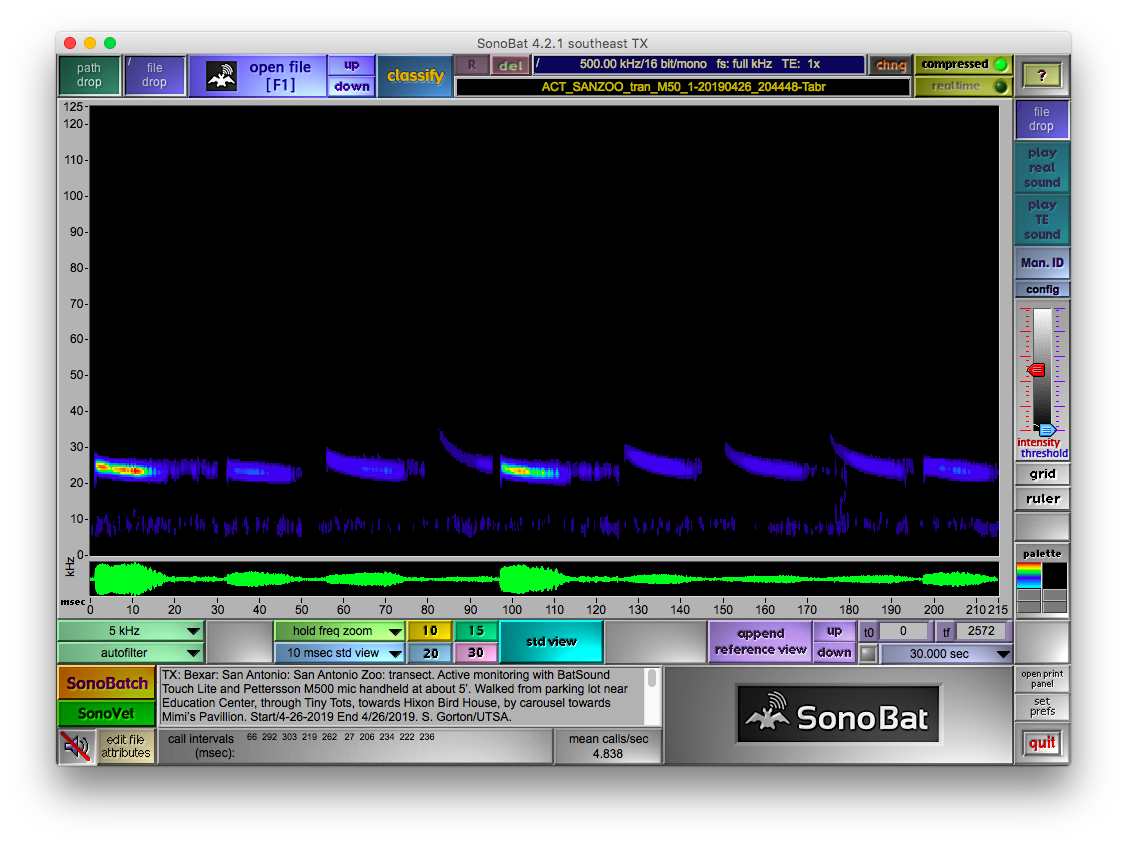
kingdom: Animalia
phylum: Chordata
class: Mammalia
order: Chiroptera
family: Molossidae
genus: Tadarida
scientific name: Tadarida brasiliensis
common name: Mexican free-tailed bat
